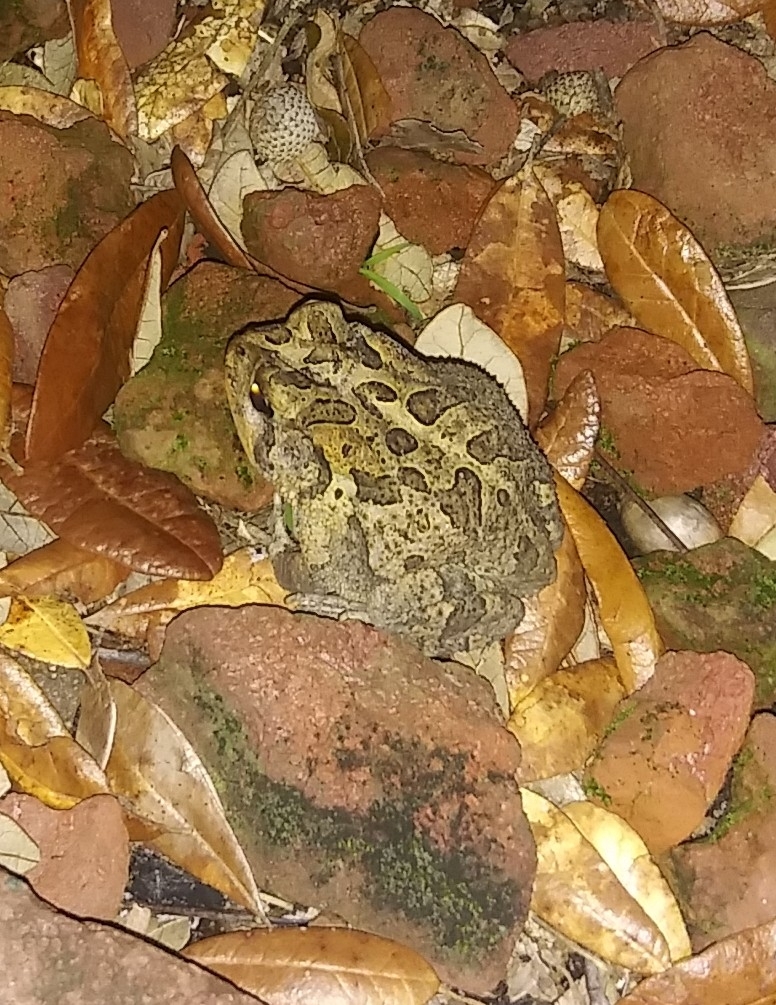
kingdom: Animalia
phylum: Chordata
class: Amphibia
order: Anura
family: Bufonidae
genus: Anaxyrus
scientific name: Anaxyrus terrestris
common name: Southern toad
